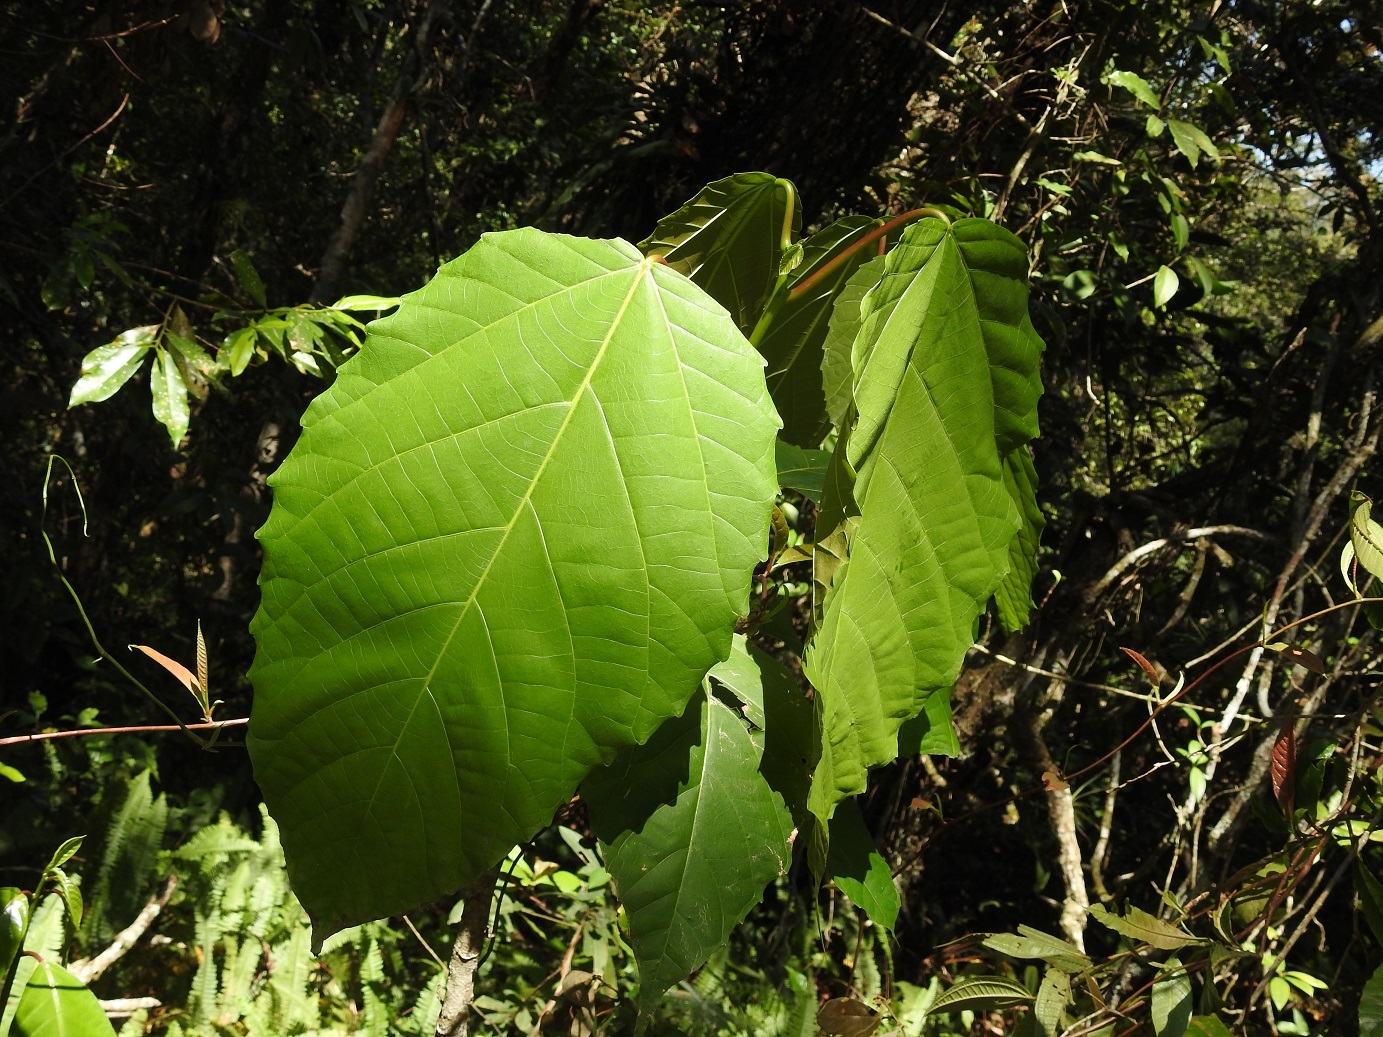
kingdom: Plantae
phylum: Tracheophyta
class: Magnoliopsida
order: Malpighiales
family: Euphorbiaceae
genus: Alchornea
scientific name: Alchornea latifolia
